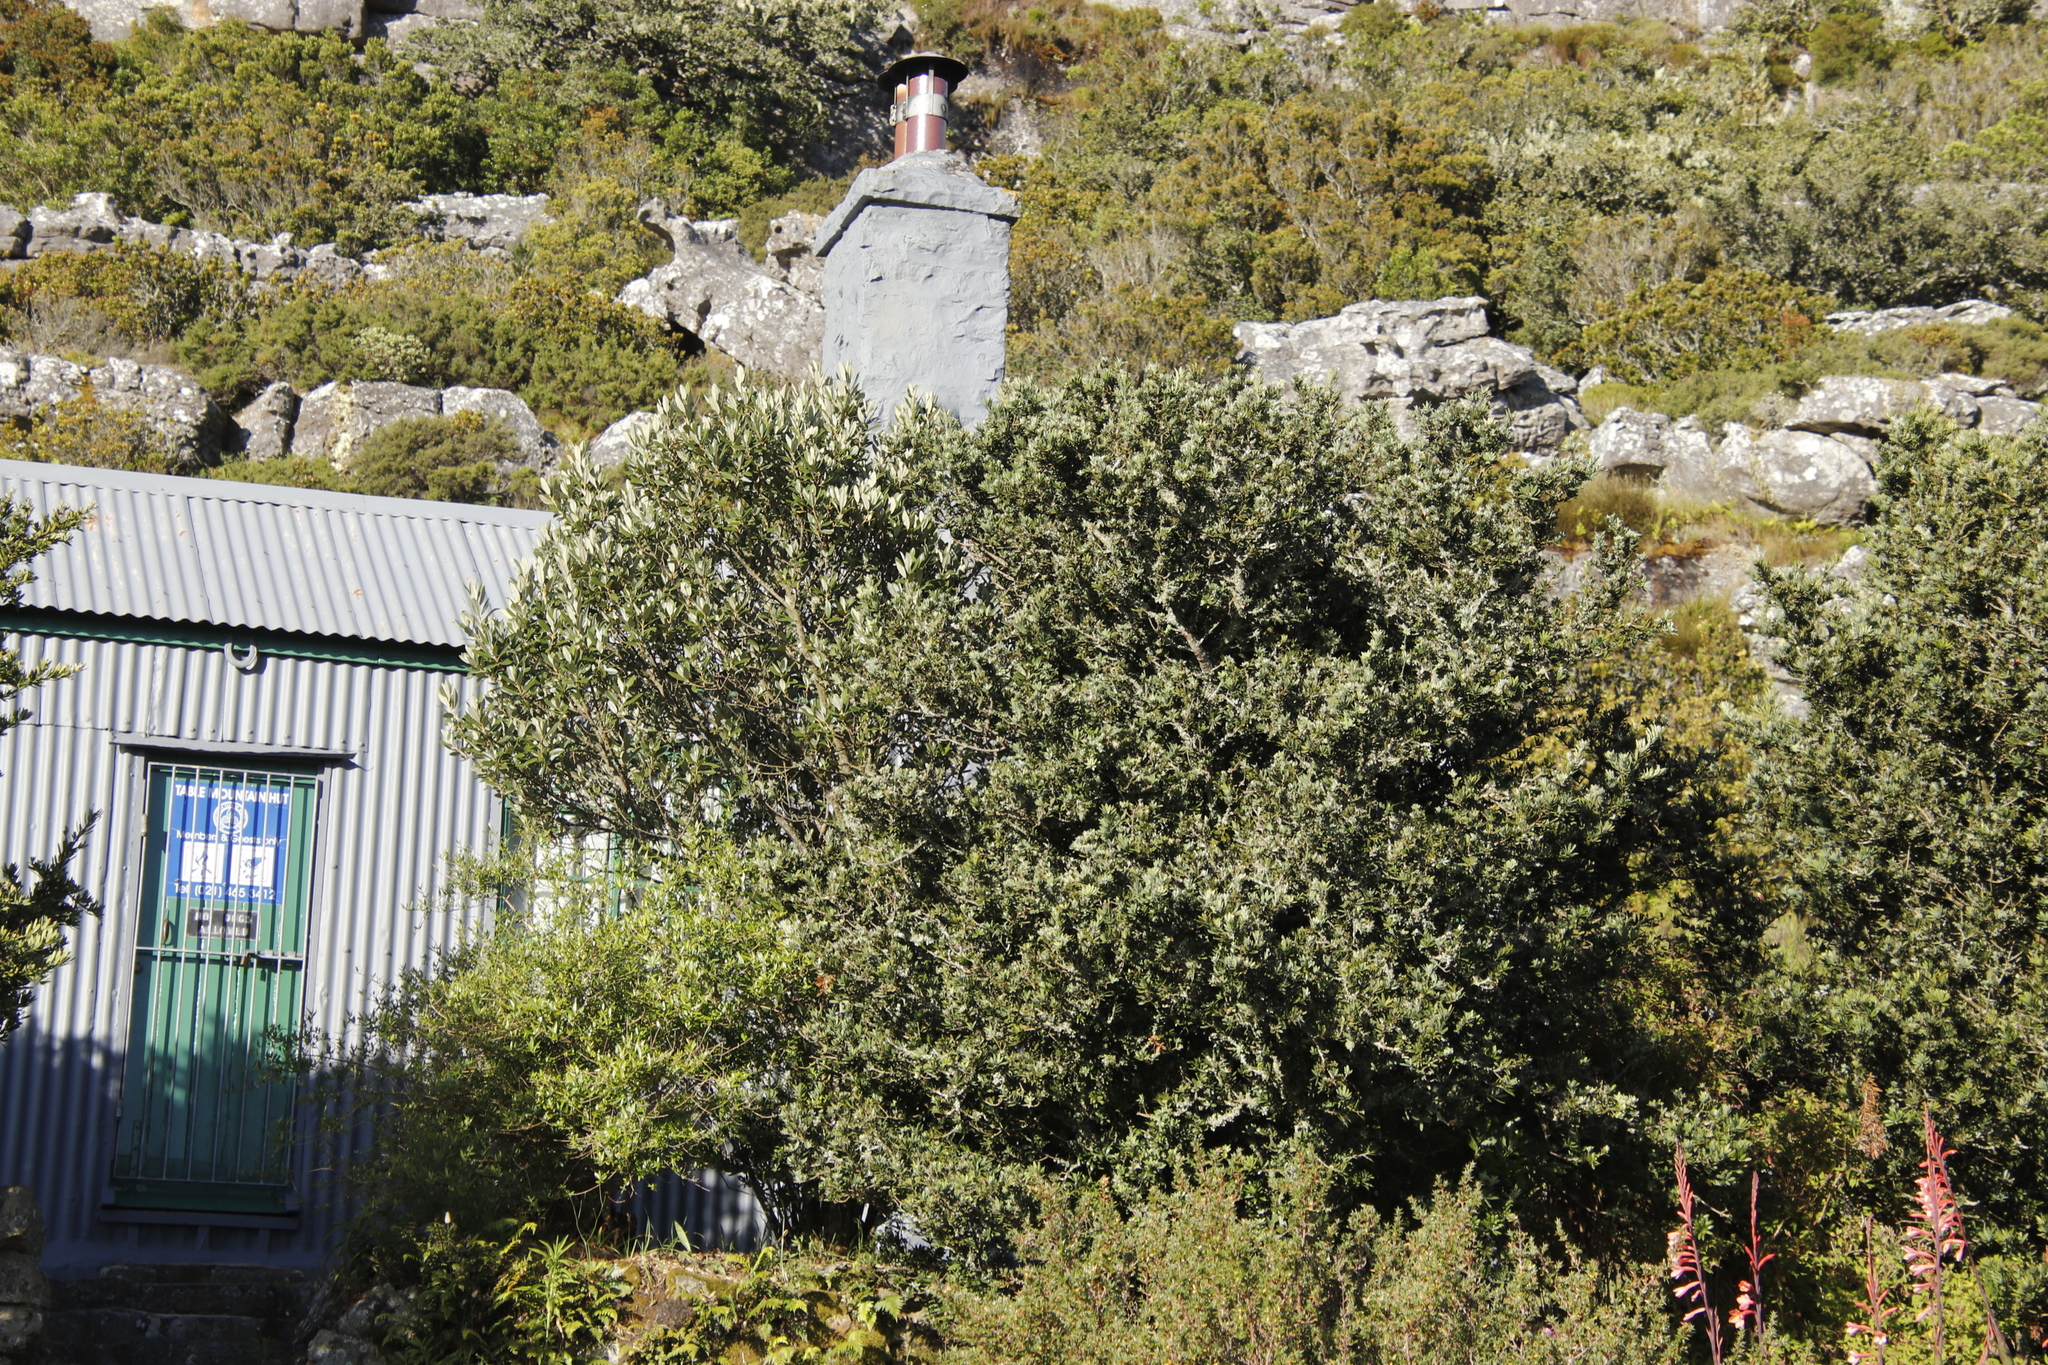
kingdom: Plantae
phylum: Tracheophyta
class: Magnoliopsida
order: Asterales
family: Asteraceae
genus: Tarchonanthus
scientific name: Tarchonanthus littoralis
